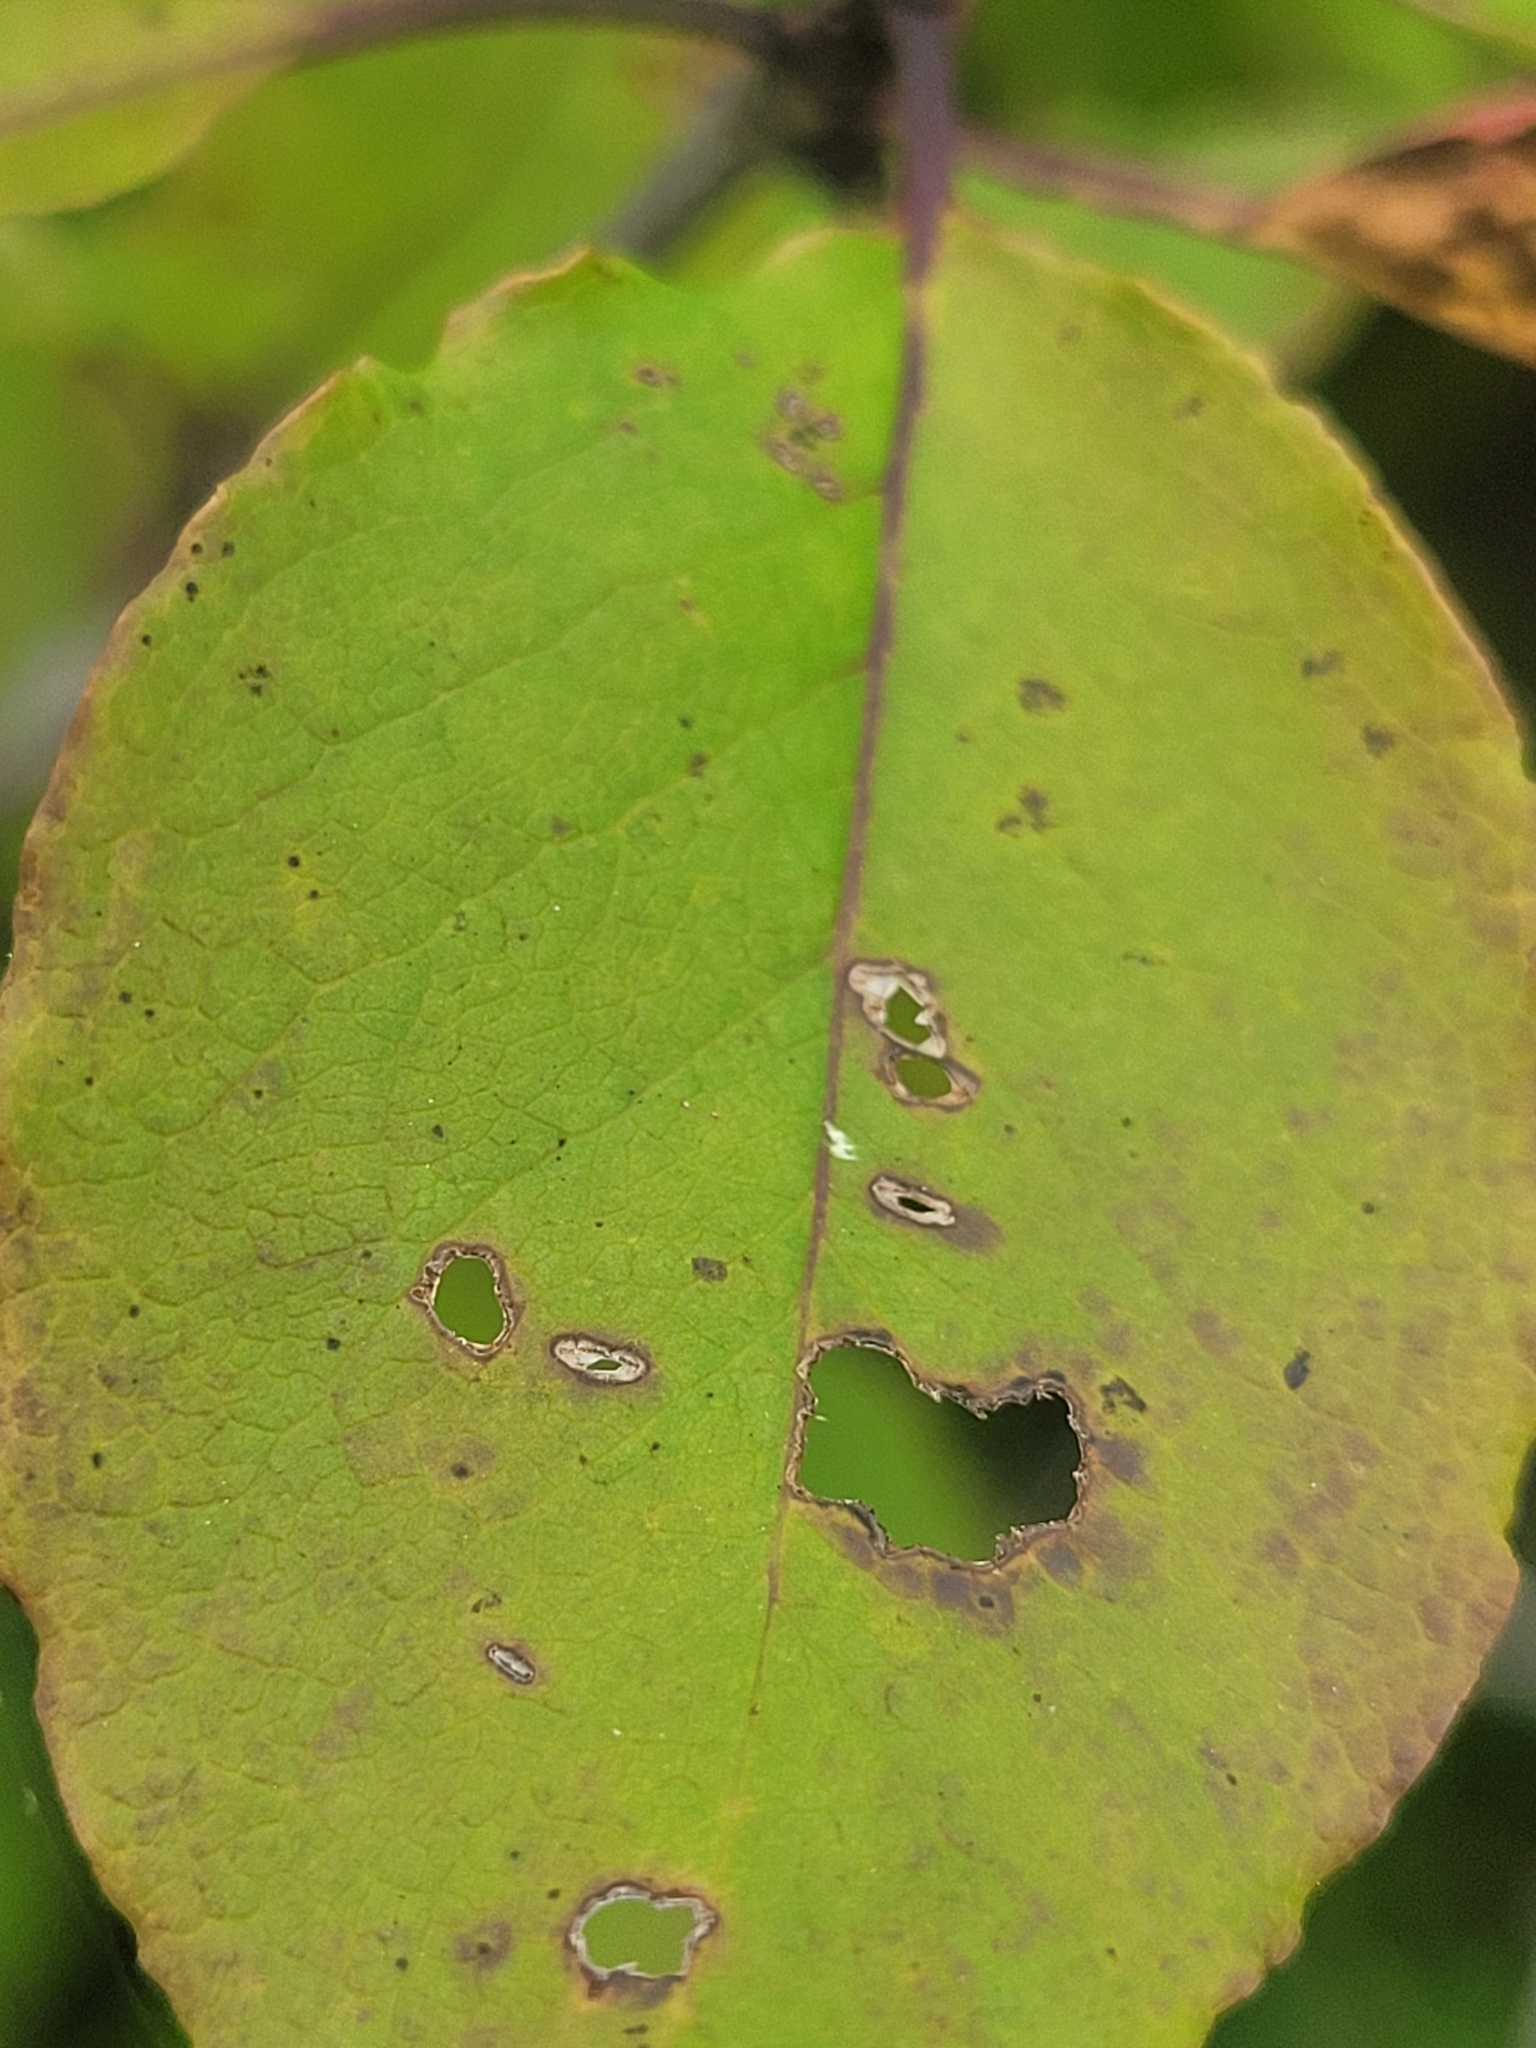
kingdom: Plantae
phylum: Tracheophyta
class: Magnoliopsida
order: Aquifoliales
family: Aquifoliaceae
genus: Ilex
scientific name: Ilex mucronata
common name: Catberry
